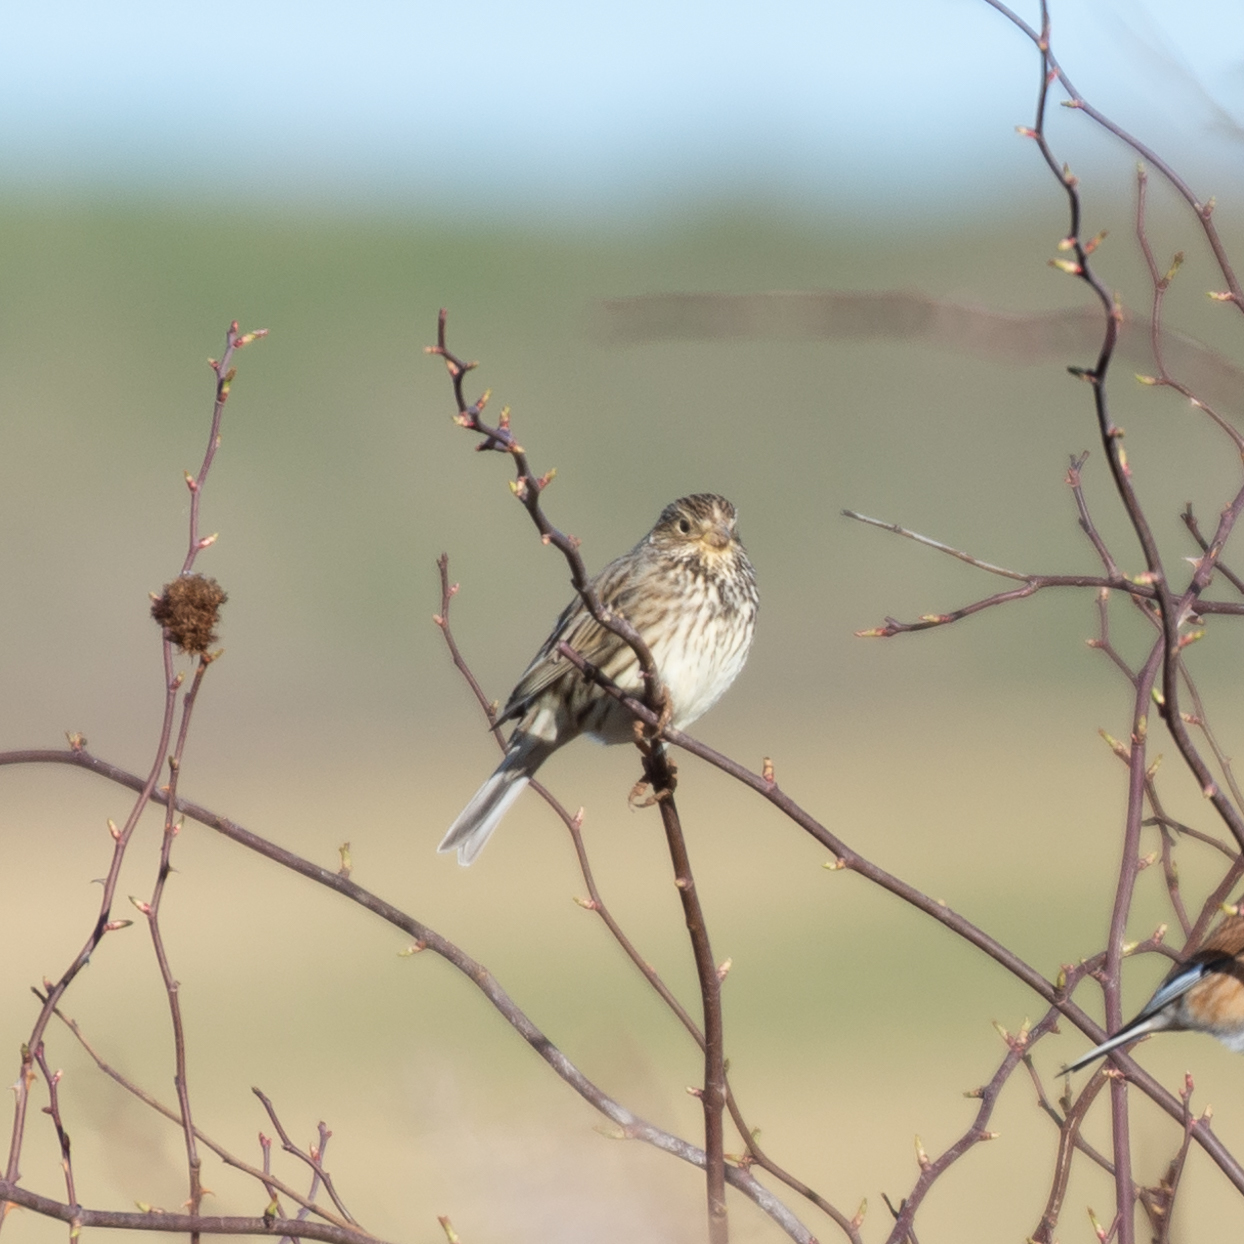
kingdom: Animalia
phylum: Chordata
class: Aves
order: Passeriformes
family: Emberizidae
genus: Emberiza
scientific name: Emberiza calandra
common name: Corn bunting
